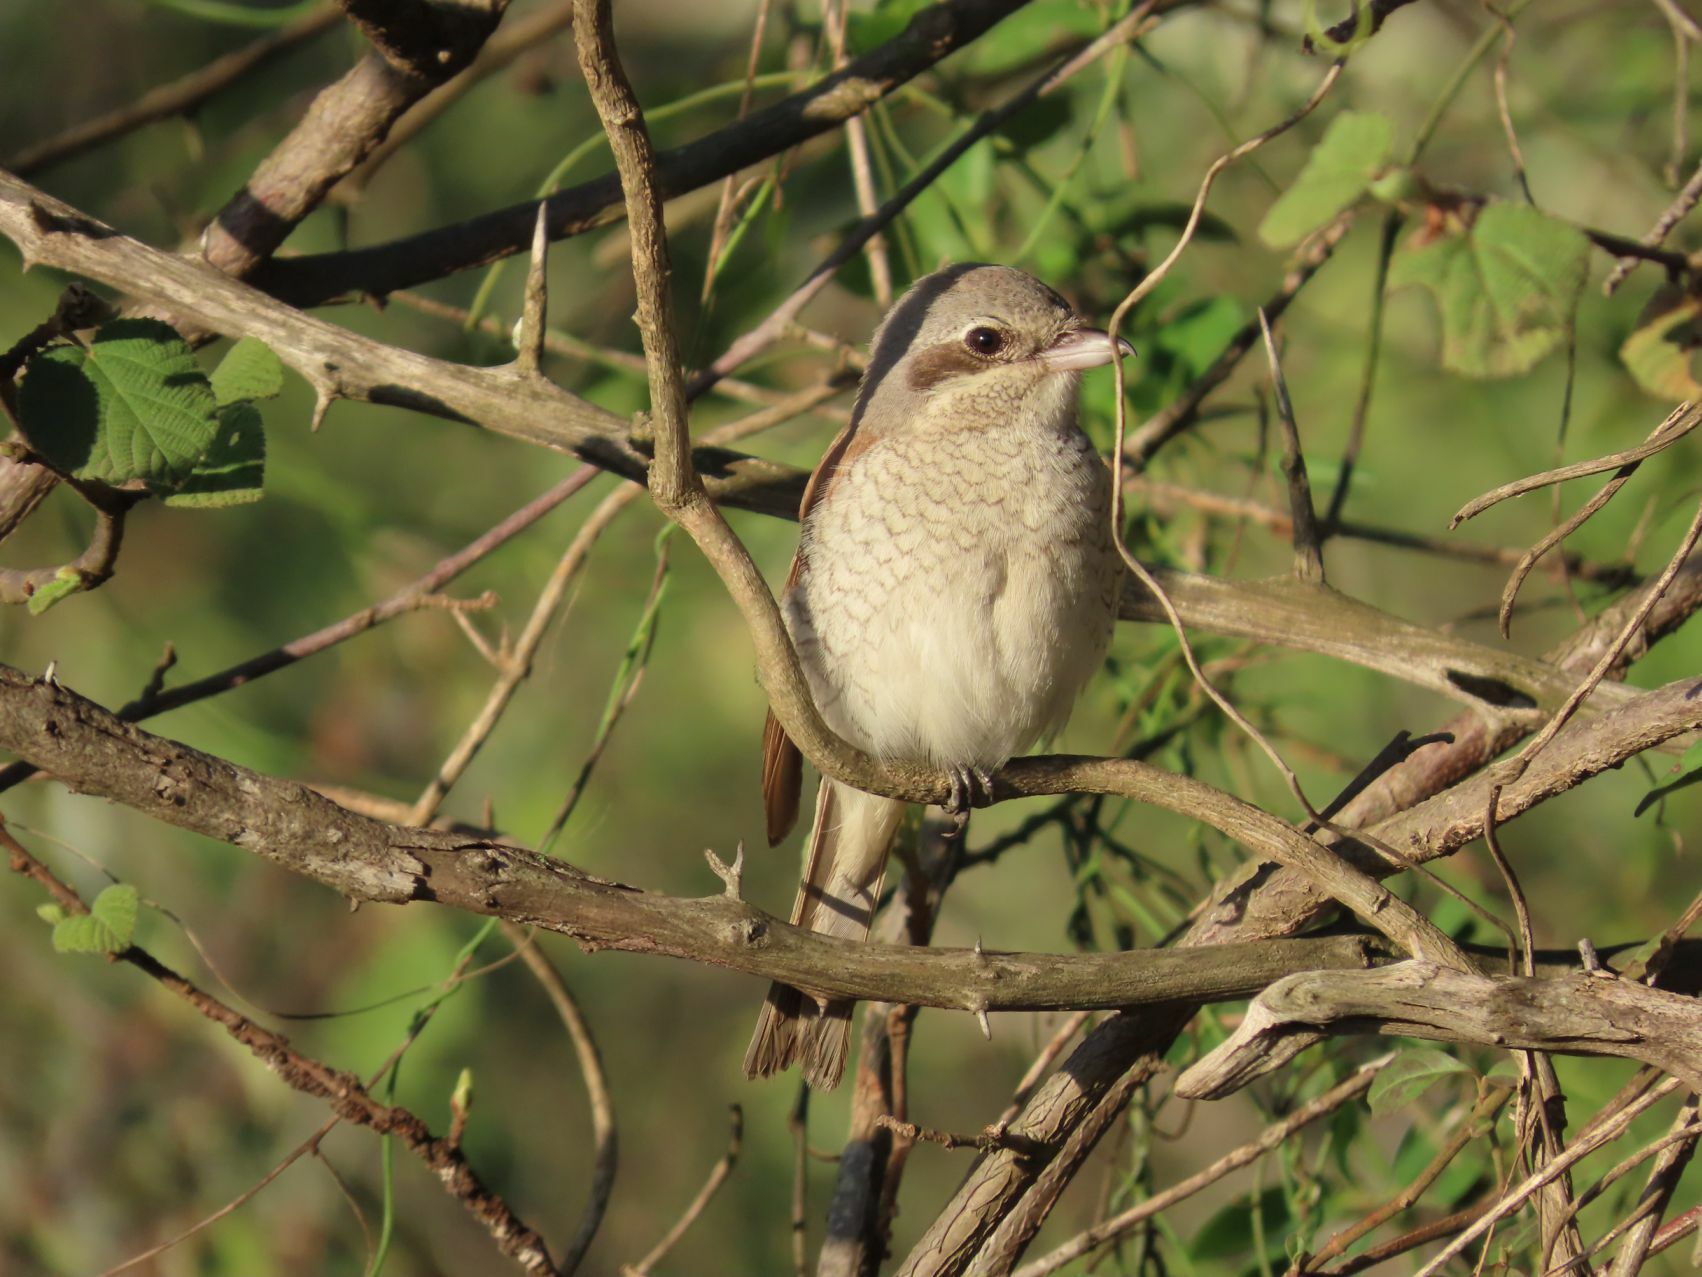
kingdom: Animalia
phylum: Chordata
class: Aves
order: Passeriformes
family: Laniidae
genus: Lanius
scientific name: Lanius collurio
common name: Red-backed shrike
